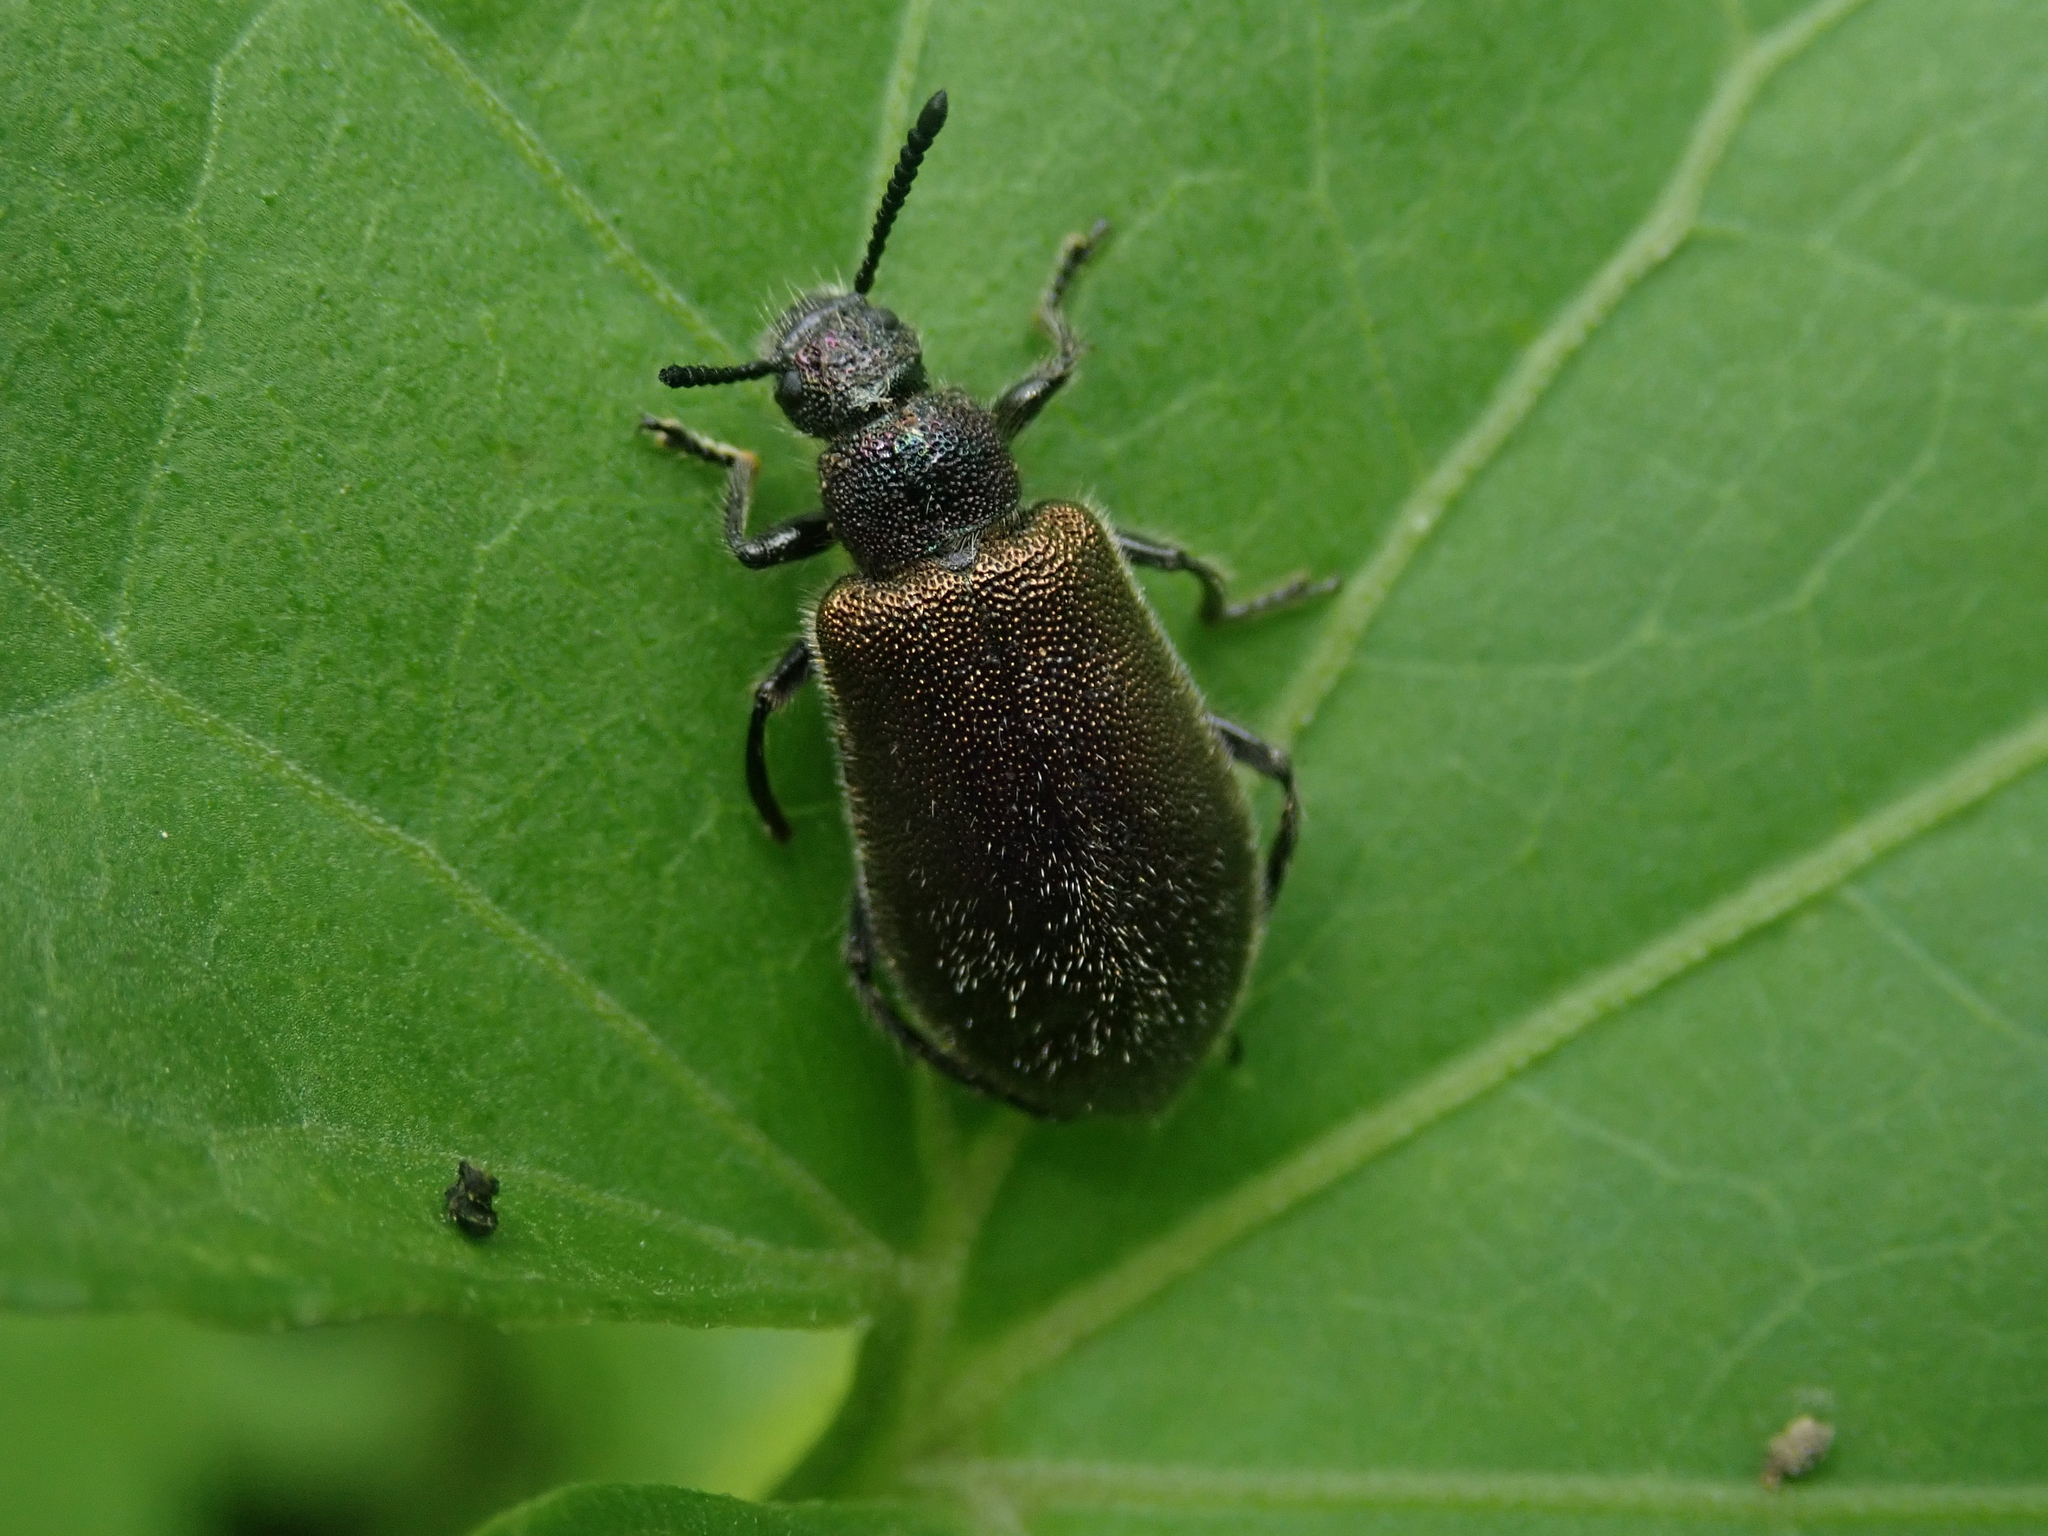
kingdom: Animalia
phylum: Arthropoda
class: Insecta
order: Coleoptera
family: Tenebrionidae
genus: Lagria
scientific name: Lagria villosa
